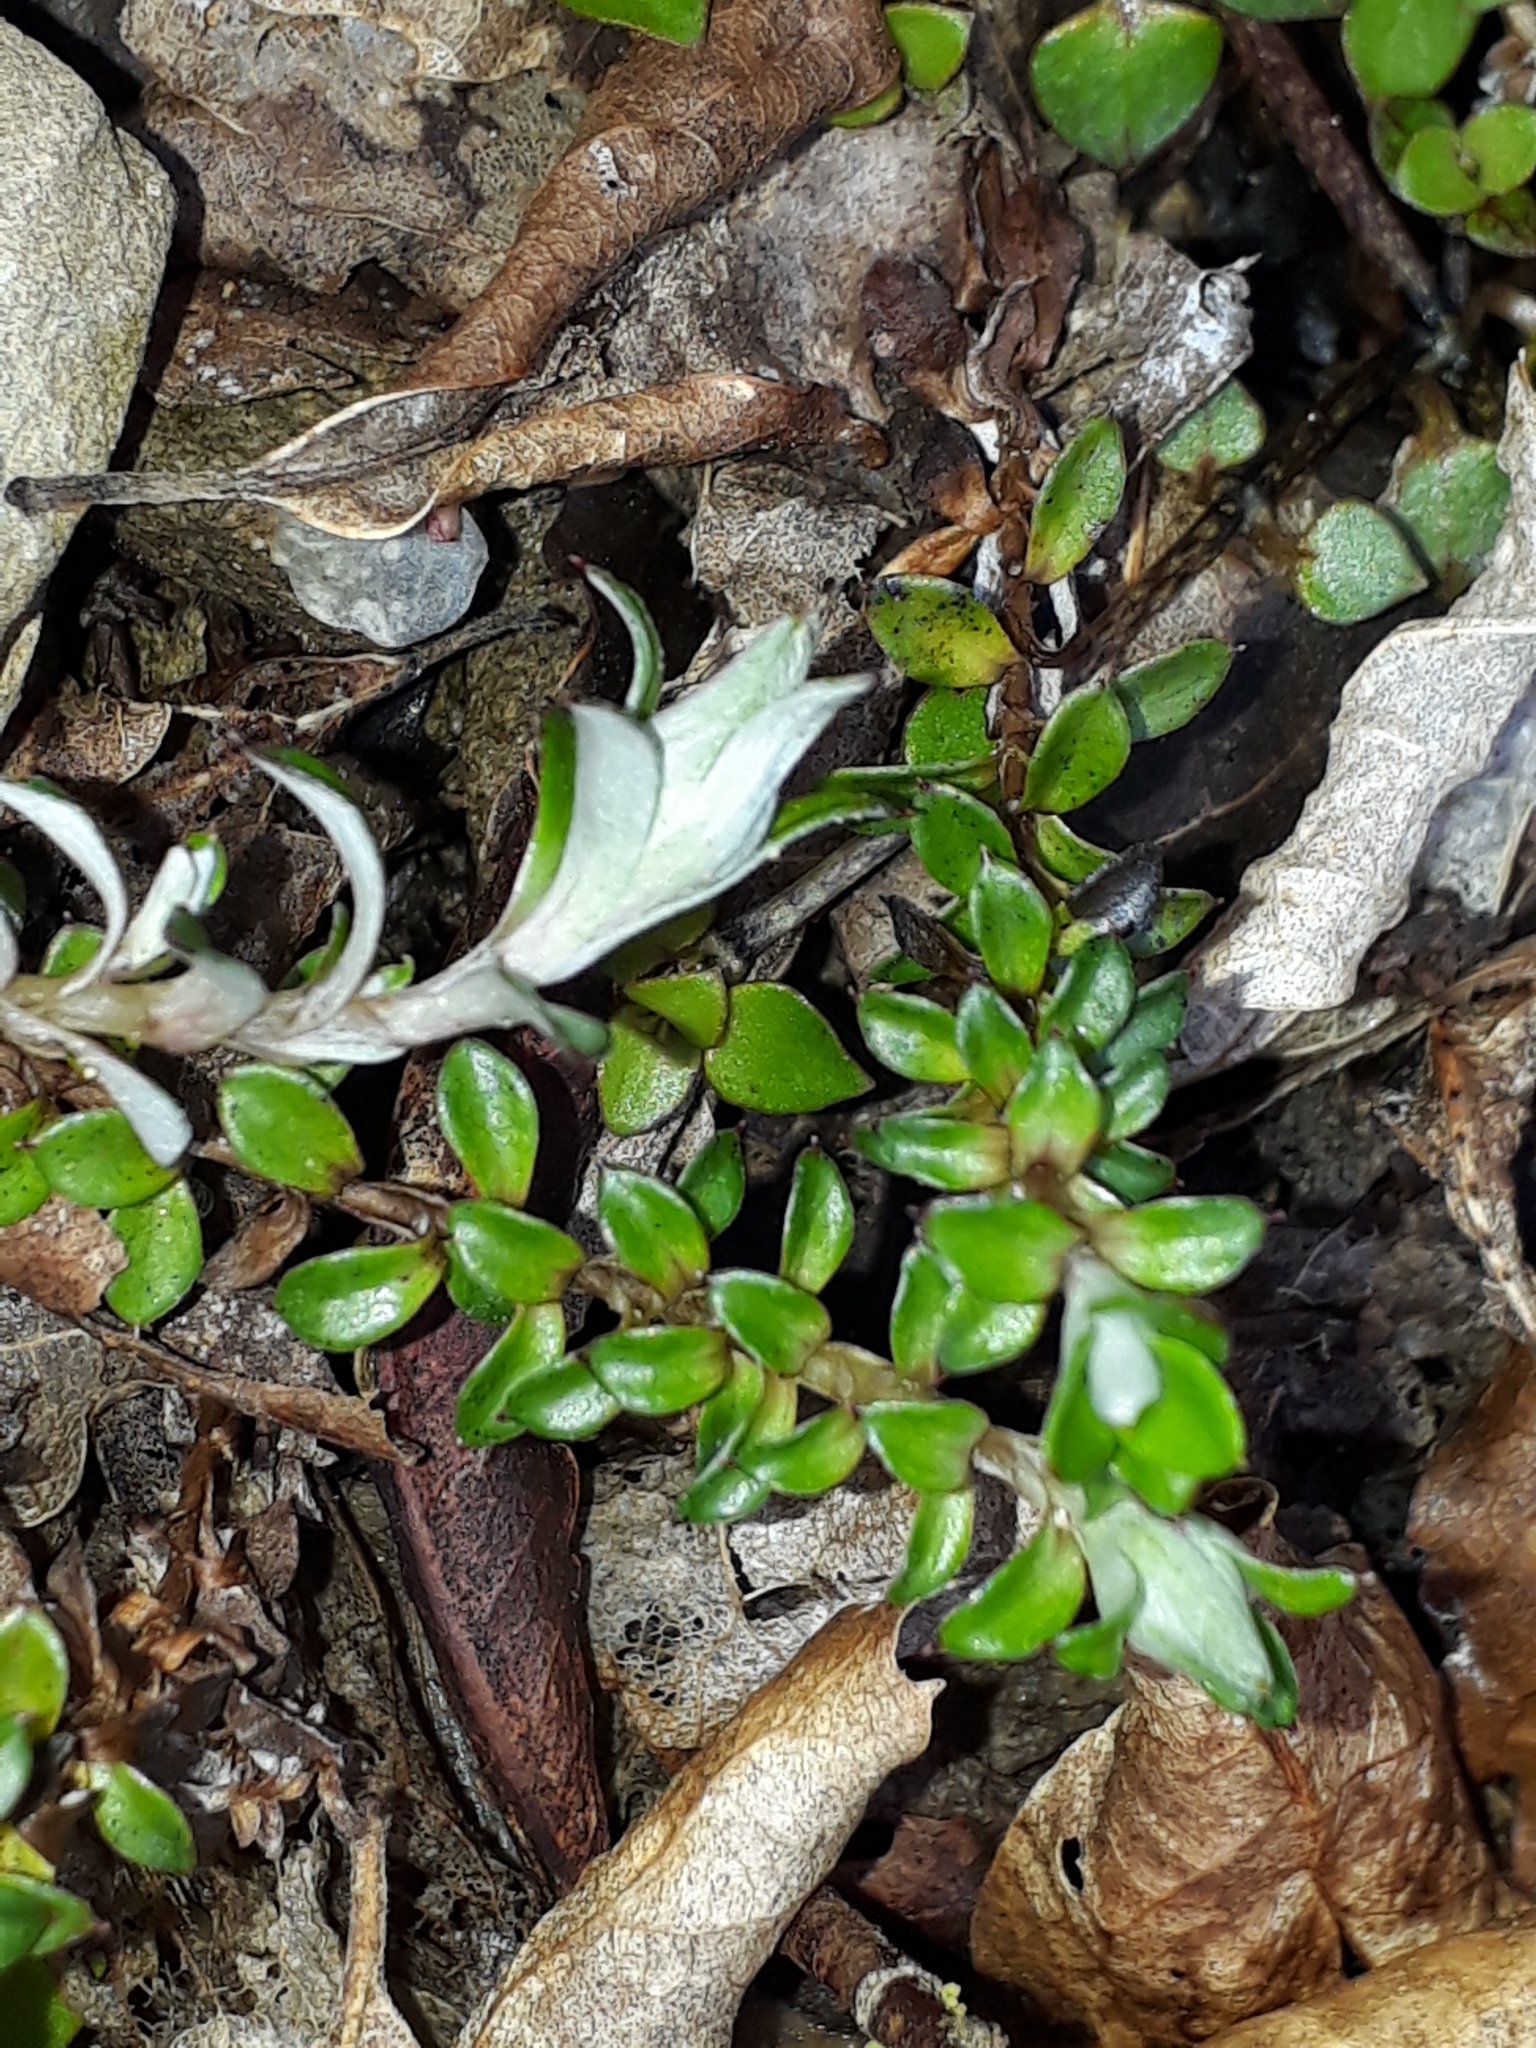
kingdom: Plantae
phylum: Tracheophyta
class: Magnoliopsida
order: Asterales
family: Asteraceae
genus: Anaphalioides
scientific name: Anaphalioides bellidioides
